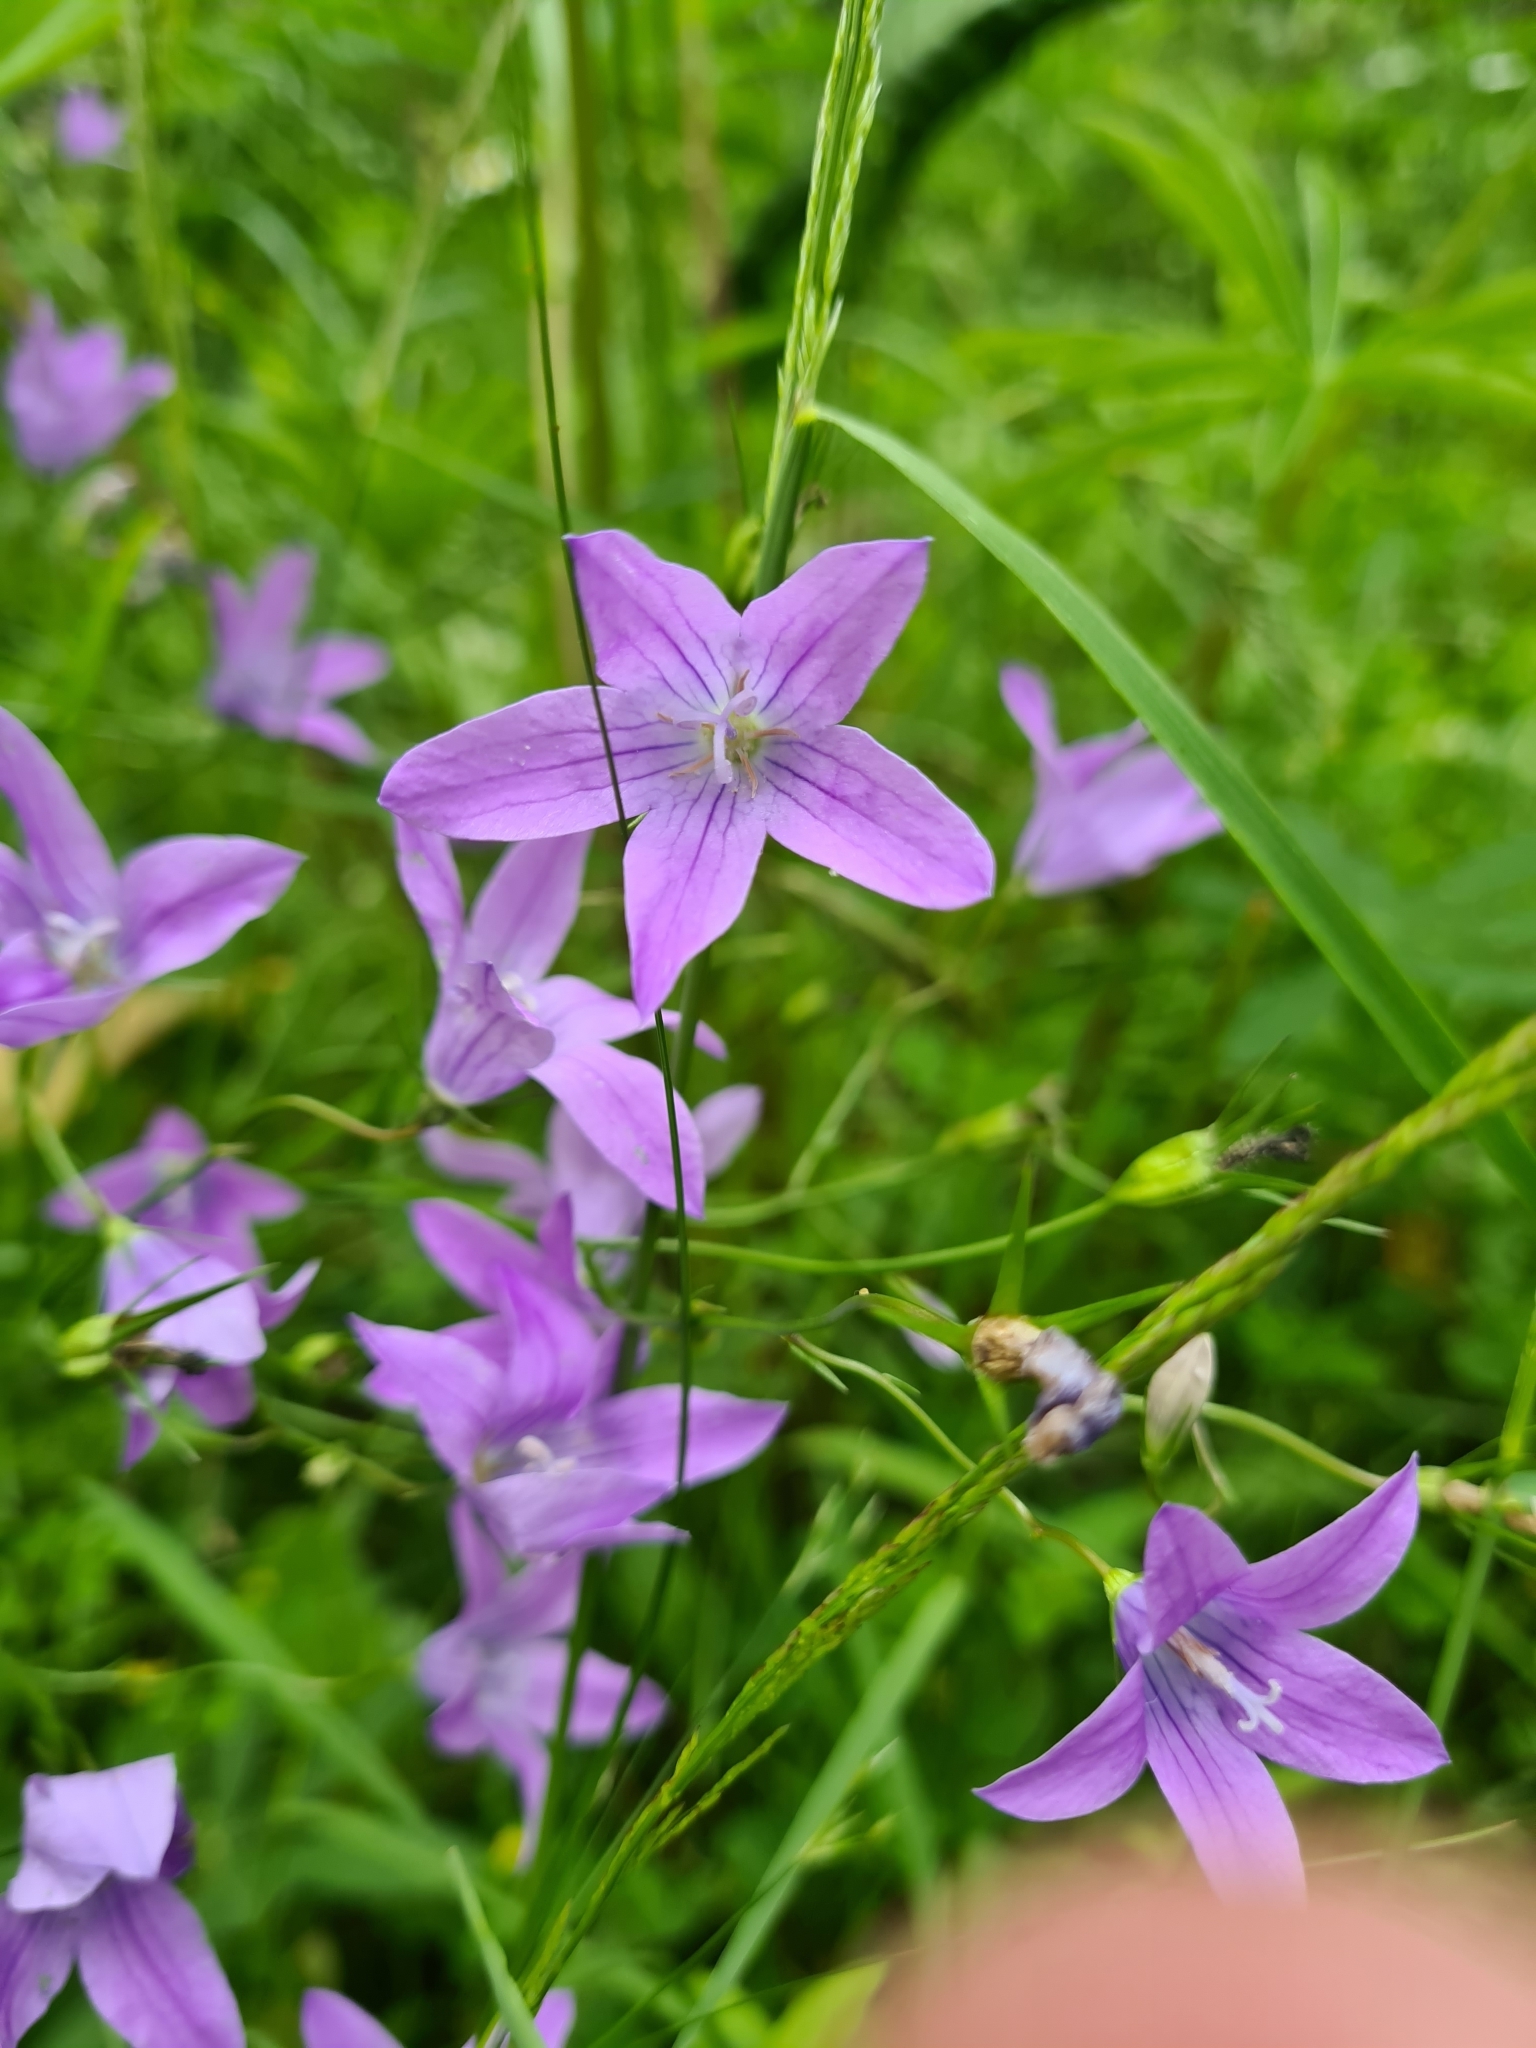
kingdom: Plantae
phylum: Tracheophyta
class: Magnoliopsida
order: Asterales
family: Campanulaceae
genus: Campanula
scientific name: Campanula patula
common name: Spreading bellflower
